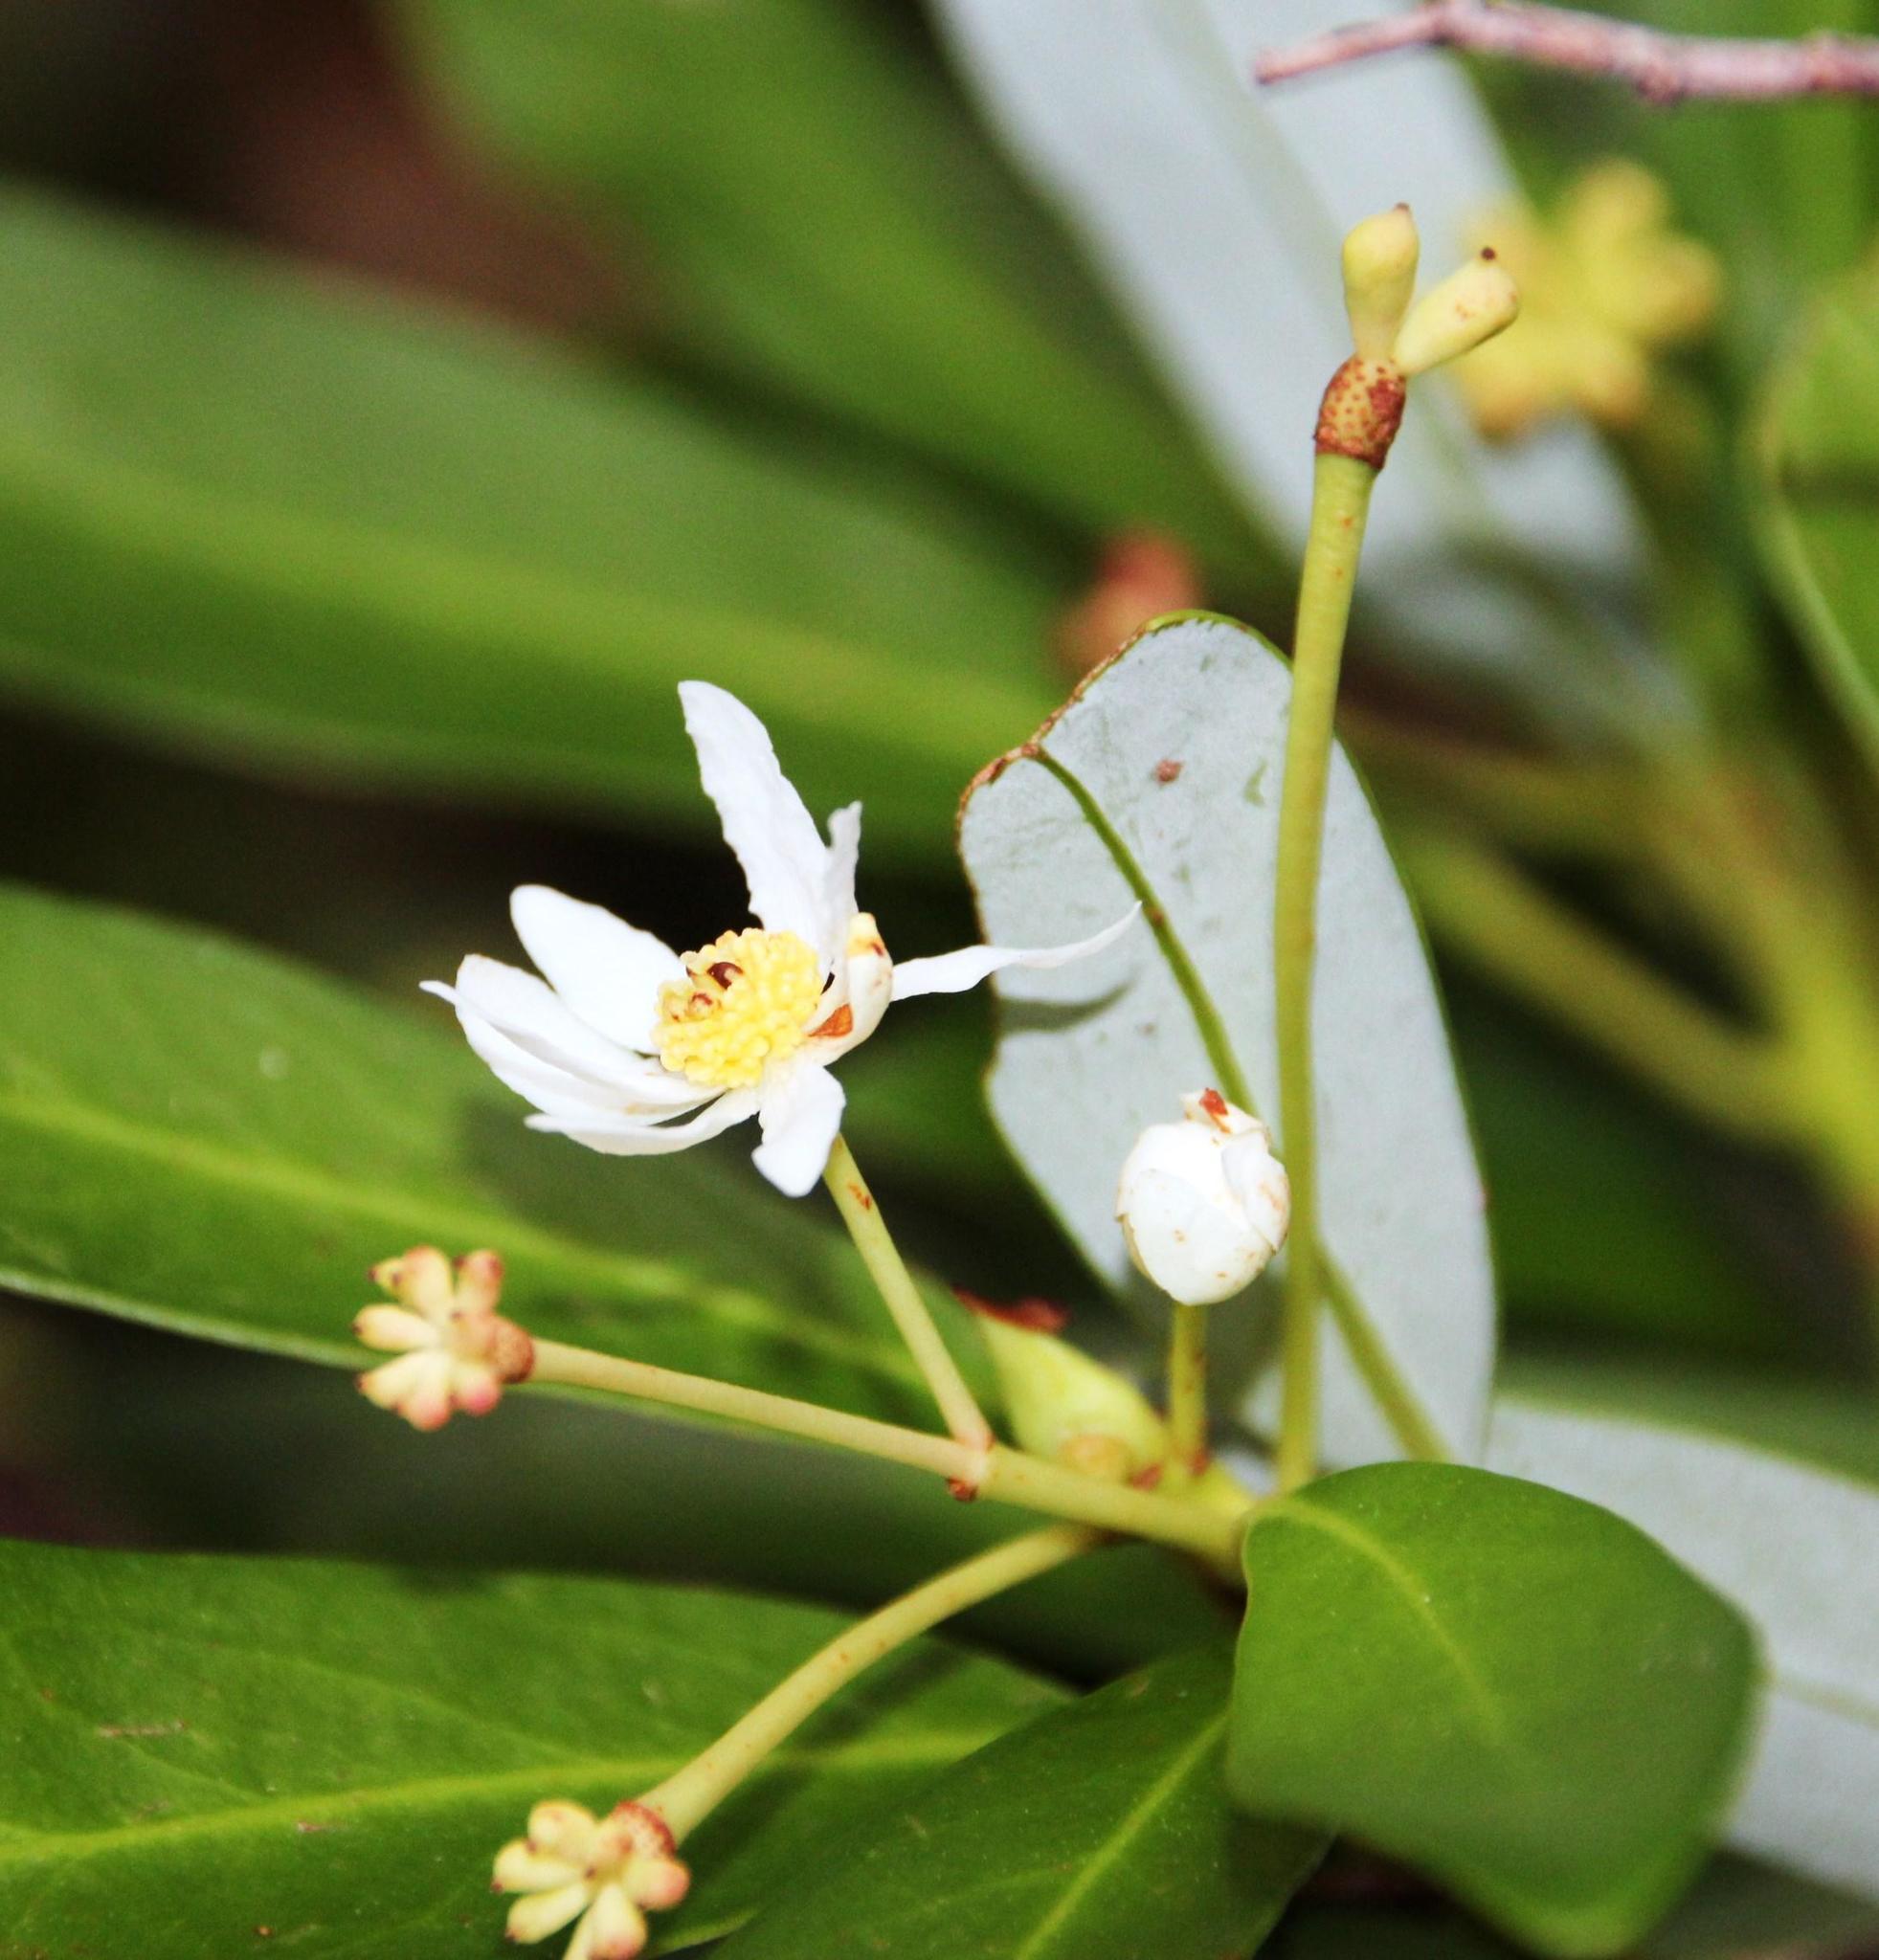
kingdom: Plantae
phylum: Tracheophyta
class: Magnoliopsida
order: Canellales
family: Winteraceae
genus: Drimys
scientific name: Drimys winteri
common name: Winter's-bark
